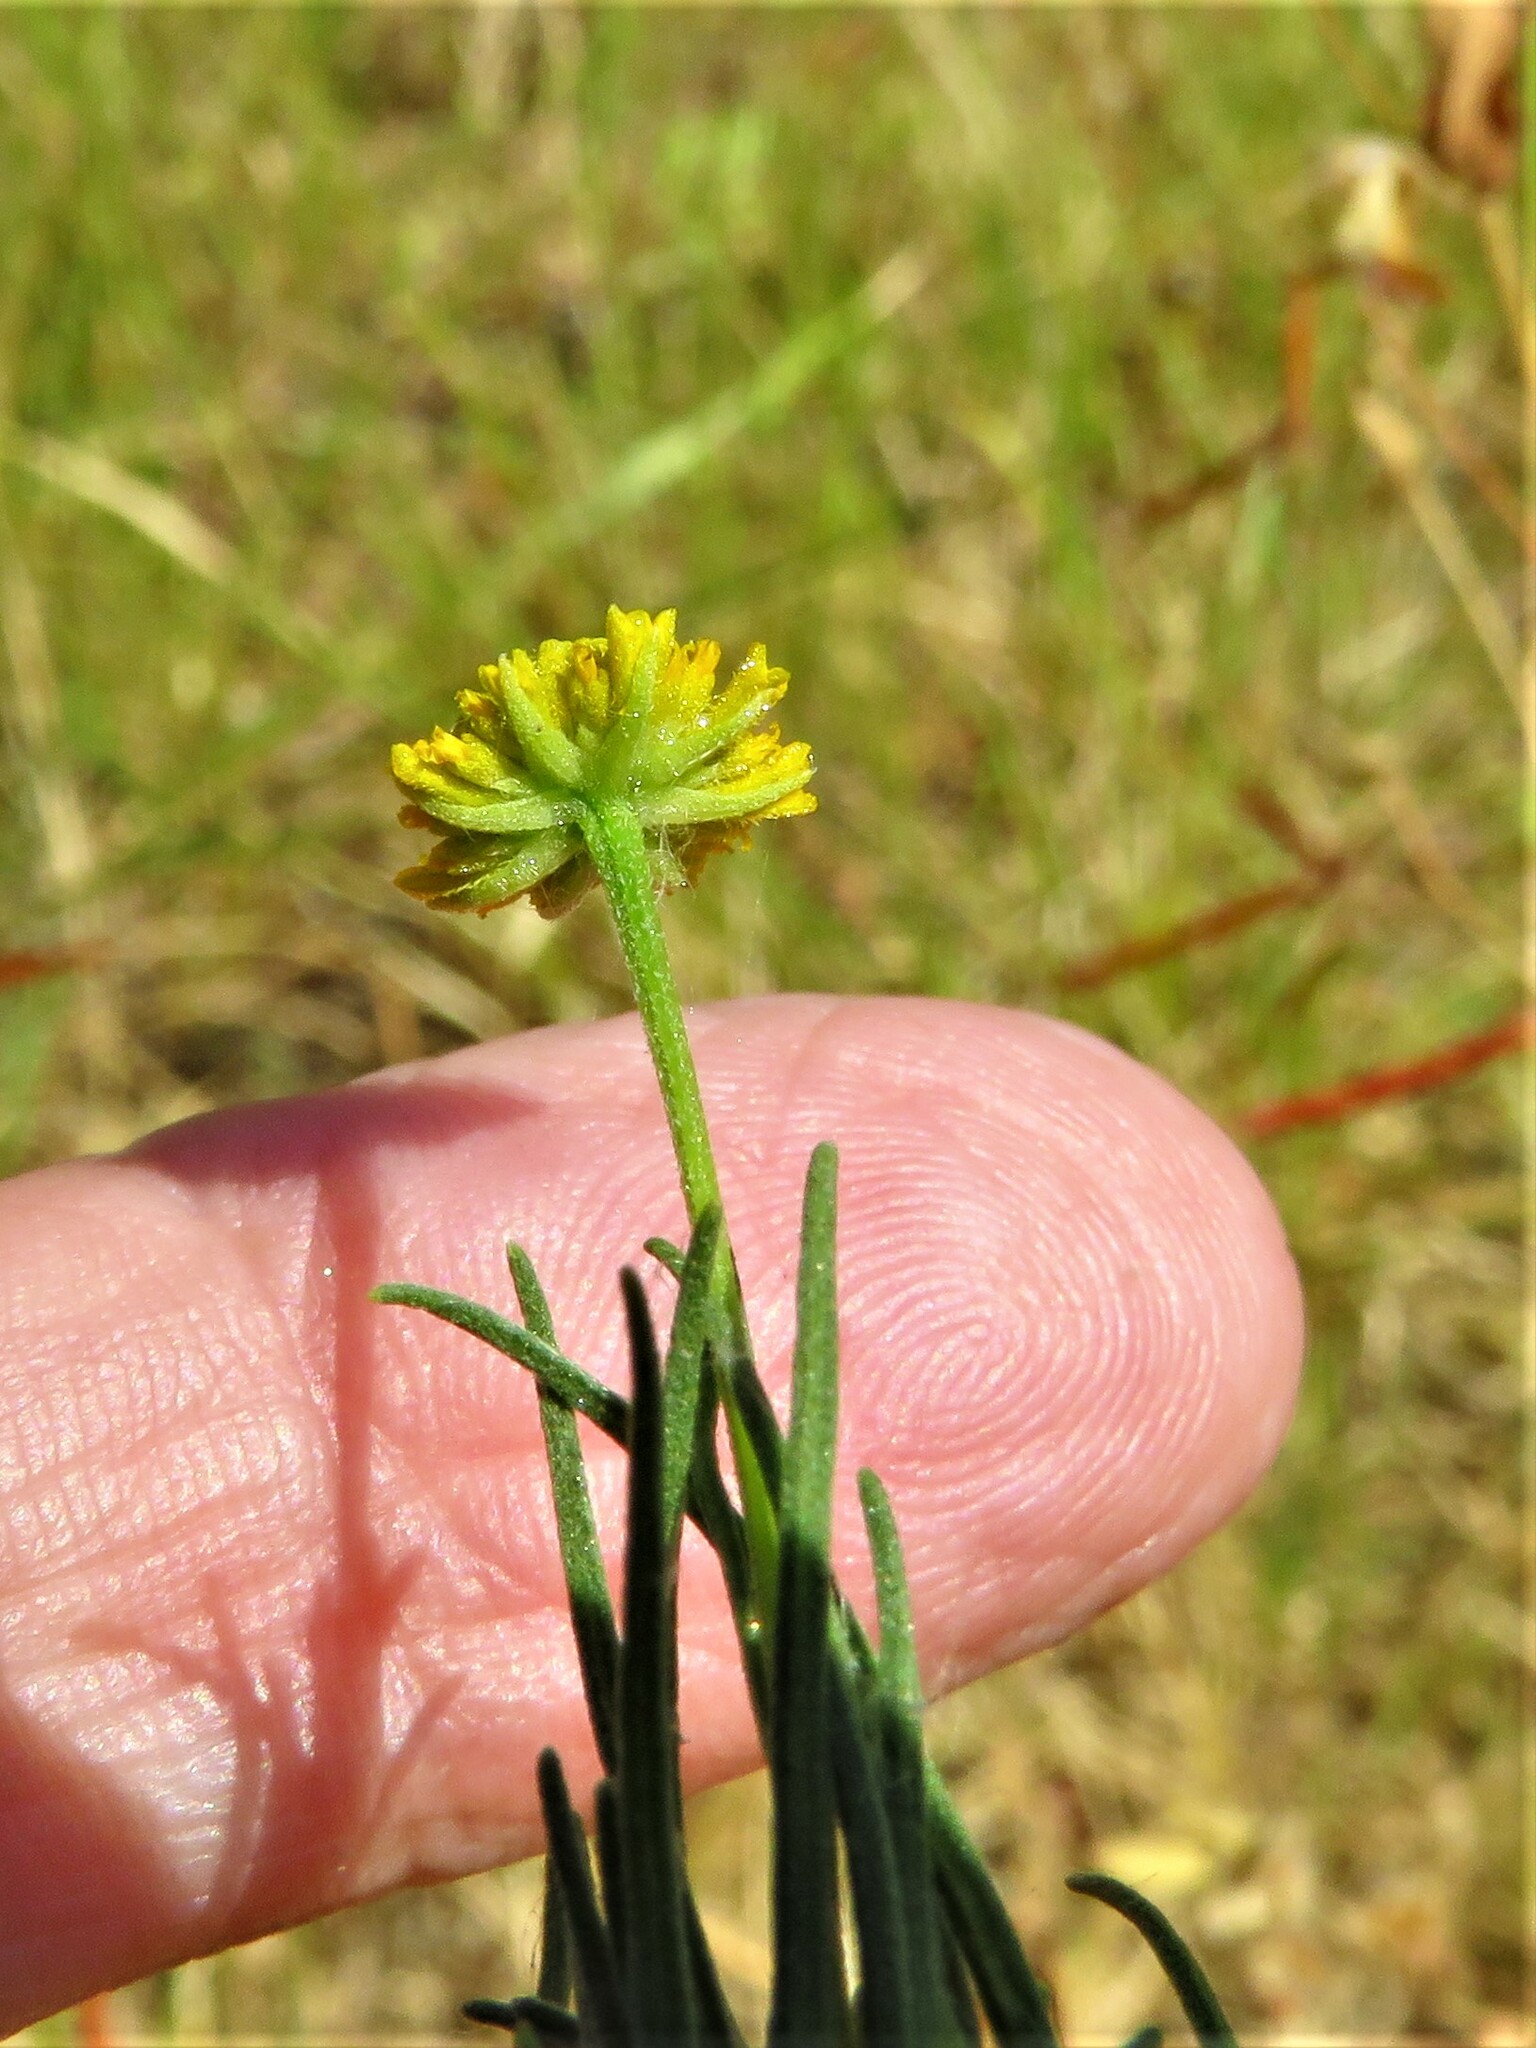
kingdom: Plantae
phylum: Tracheophyta
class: Magnoliopsida
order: Asterales
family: Asteraceae
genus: Helenium
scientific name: Helenium amarum
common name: Bitter sneezeweed
